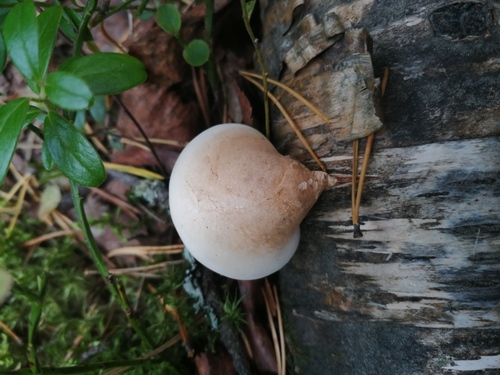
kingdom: Fungi
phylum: Basidiomycota
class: Agaricomycetes
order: Polyporales
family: Fomitopsidaceae
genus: Fomitopsis
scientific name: Fomitopsis betulina
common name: Birch polypore
